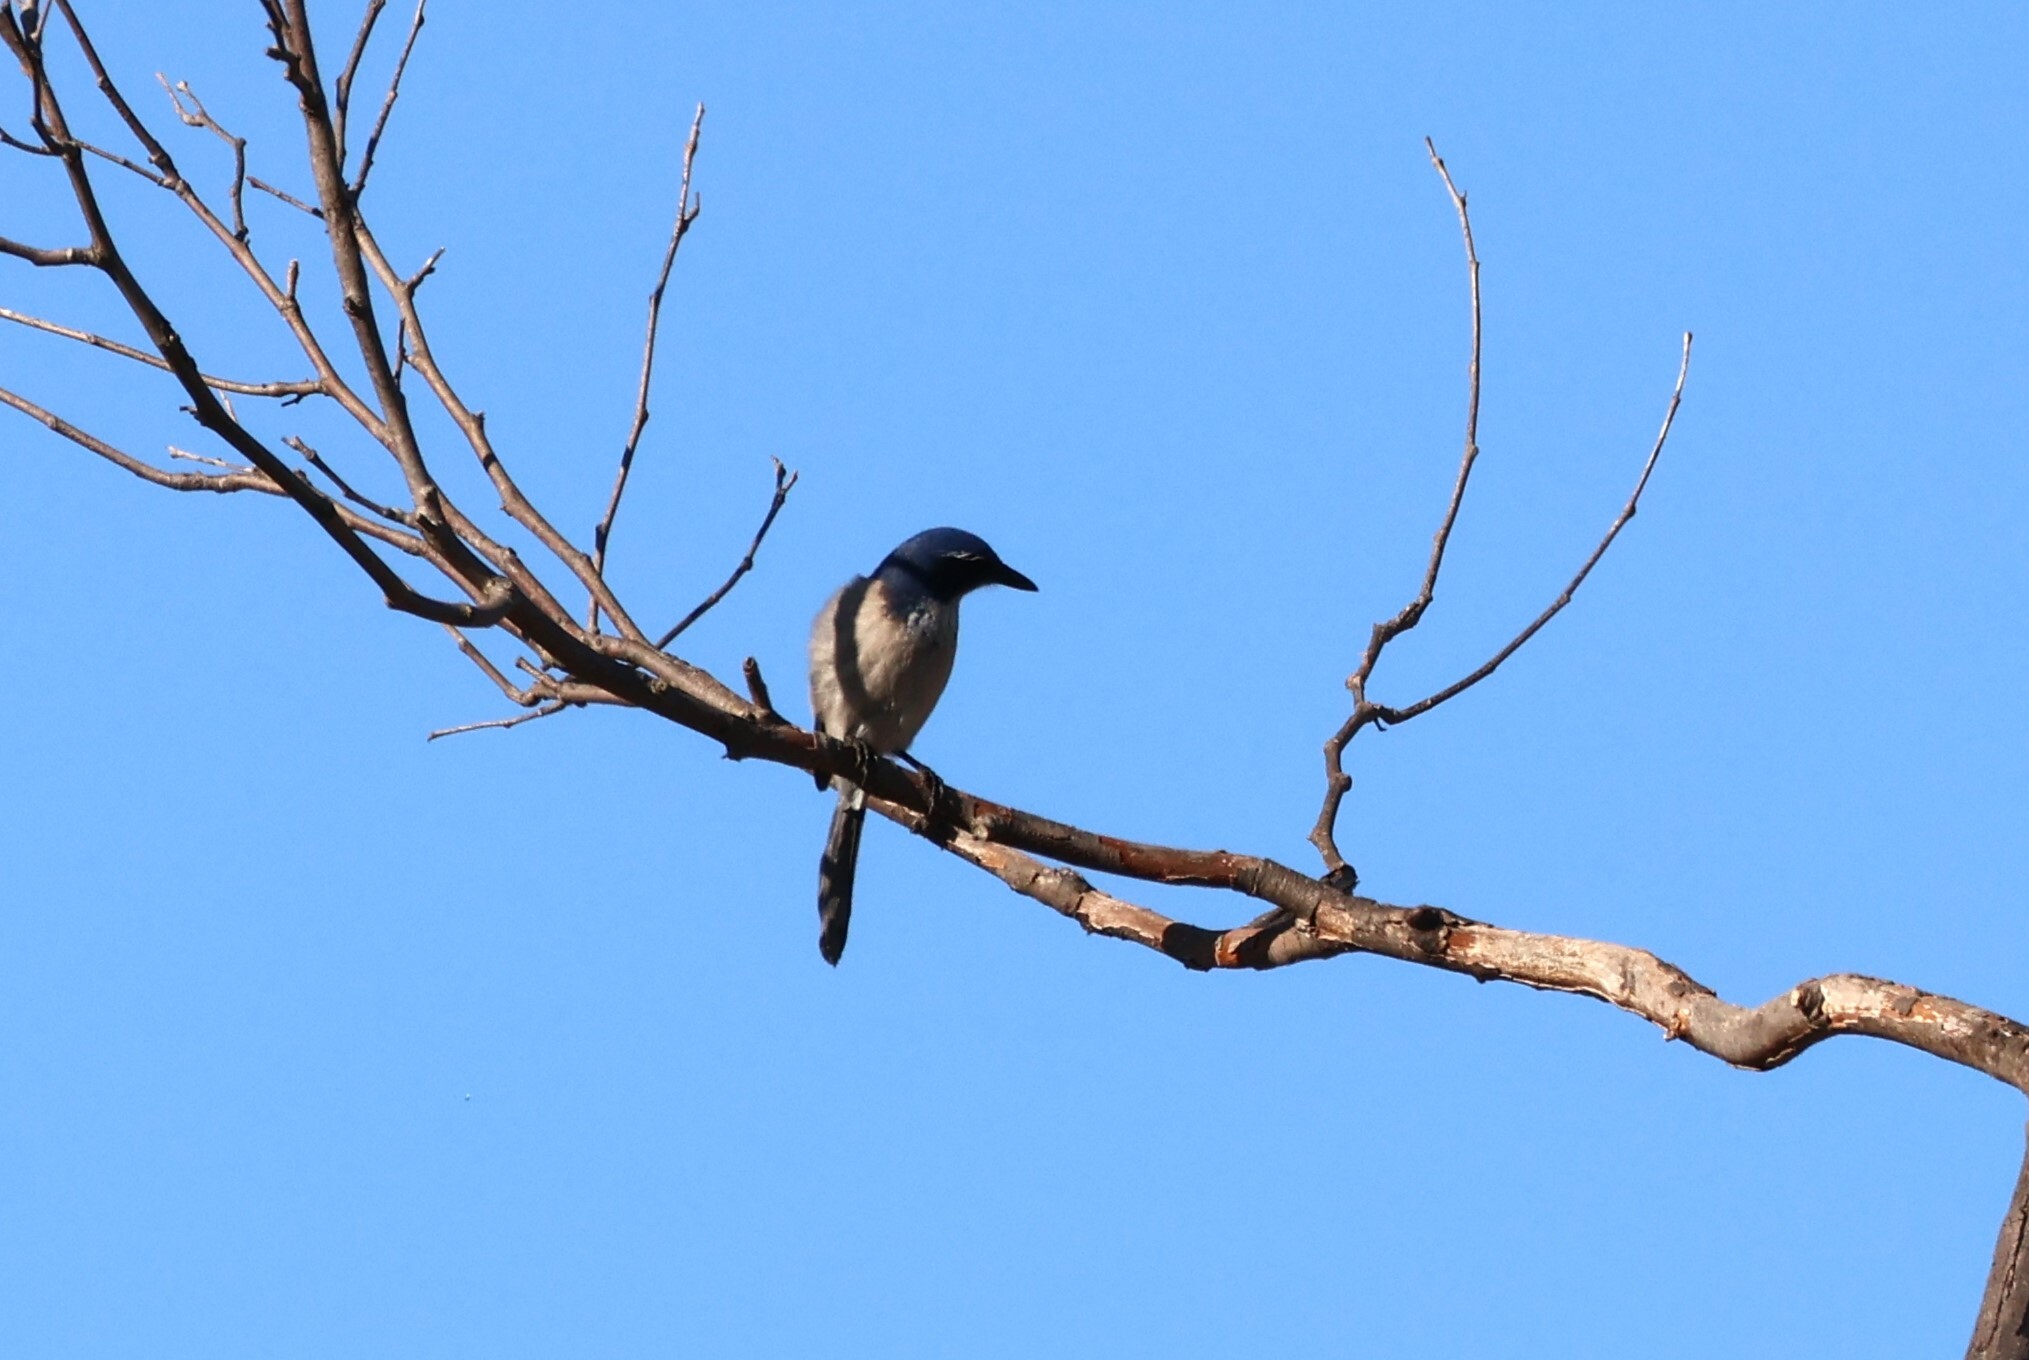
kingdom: Animalia
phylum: Chordata
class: Aves
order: Passeriformes
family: Corvidae
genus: Aphelocoma
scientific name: Aphelocoma californica
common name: California scrub-jay
